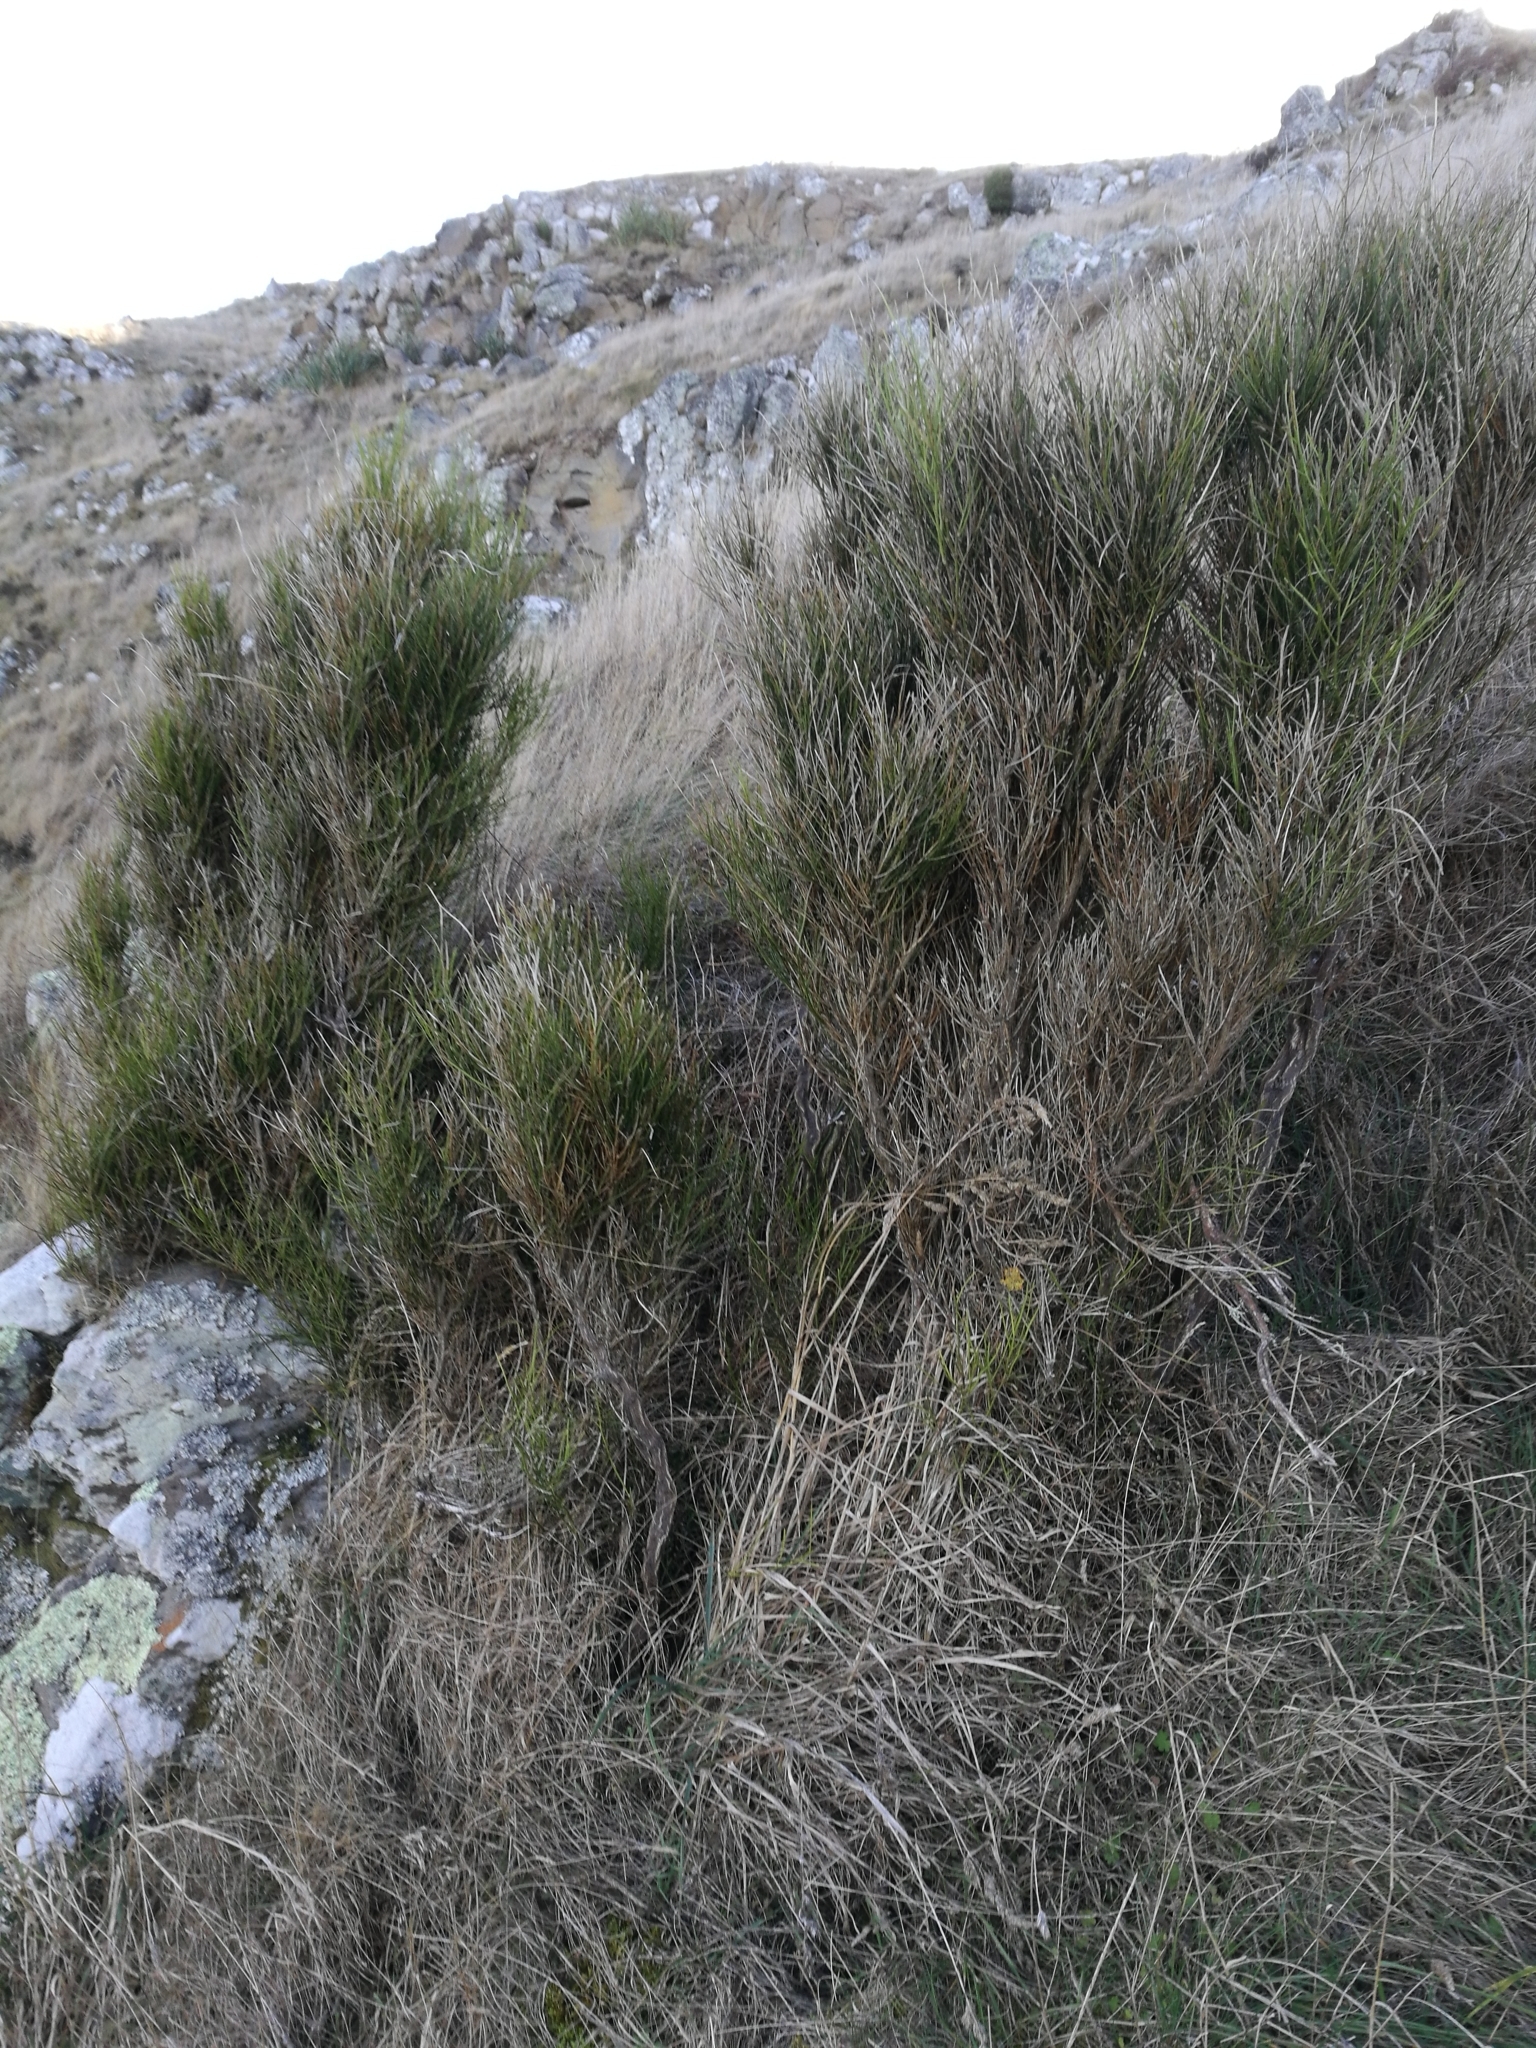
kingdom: Plantae
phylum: Tracheophyta
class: Magnoliopsida
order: Fabales
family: Fabaceae
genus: Cytisus
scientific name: Cytisus scoparius
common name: Scotch broom
